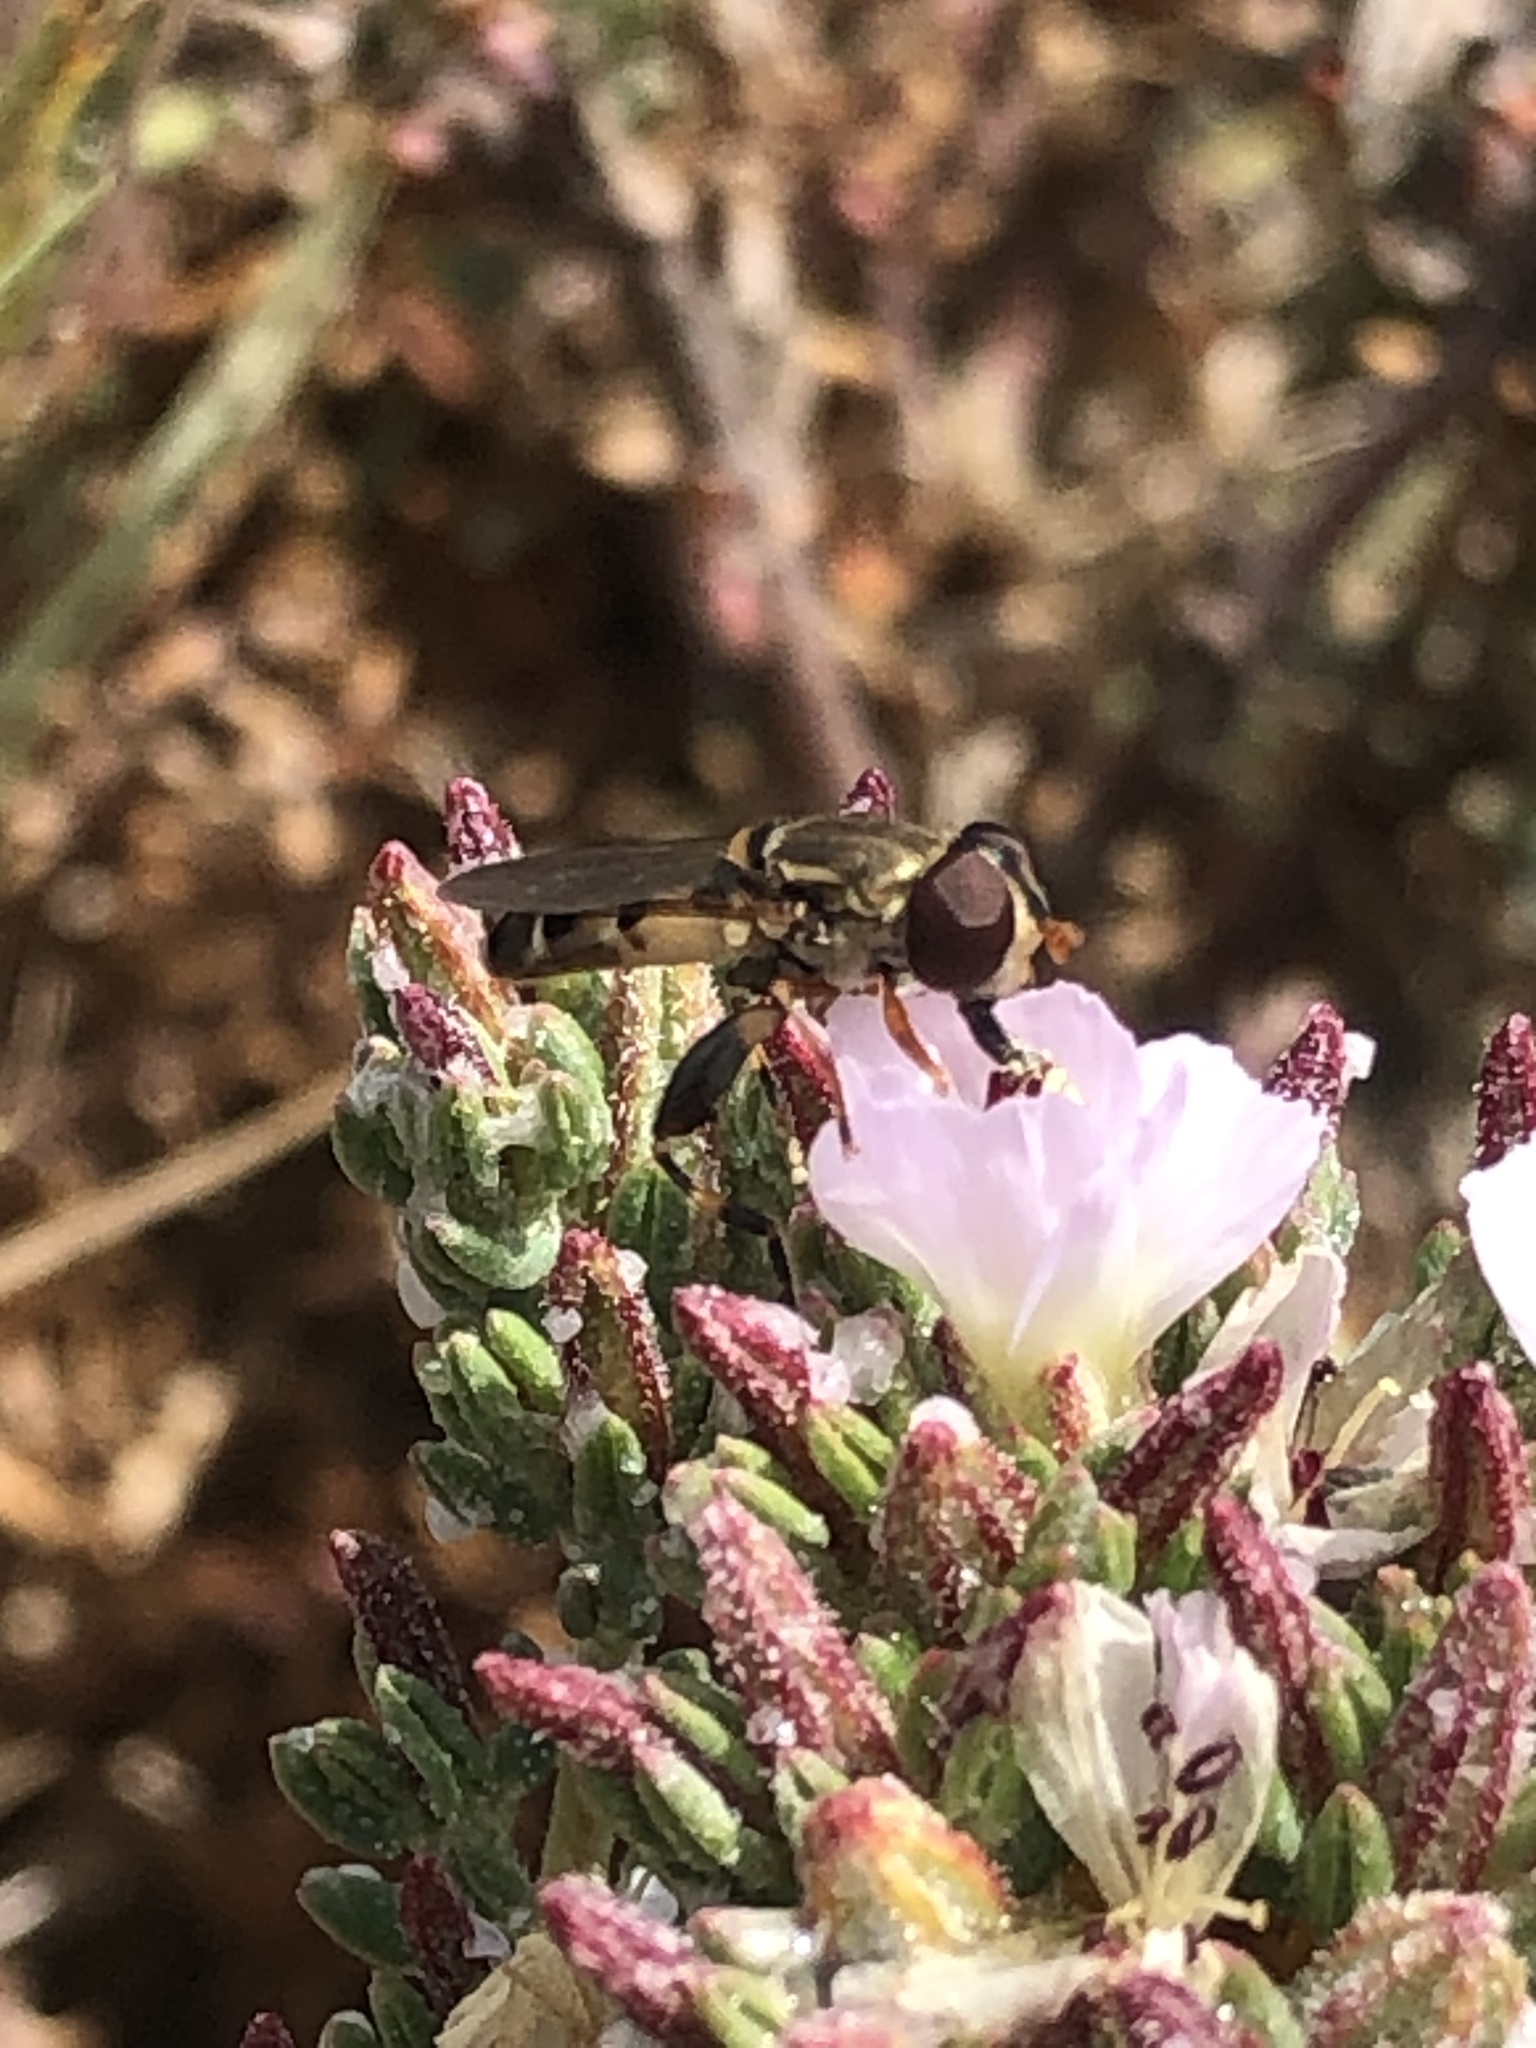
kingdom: Animalia
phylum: Arthropoda
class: Insecta
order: Diptera
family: Syrphidae
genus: Tropidia
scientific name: Tropidia flavimanus
